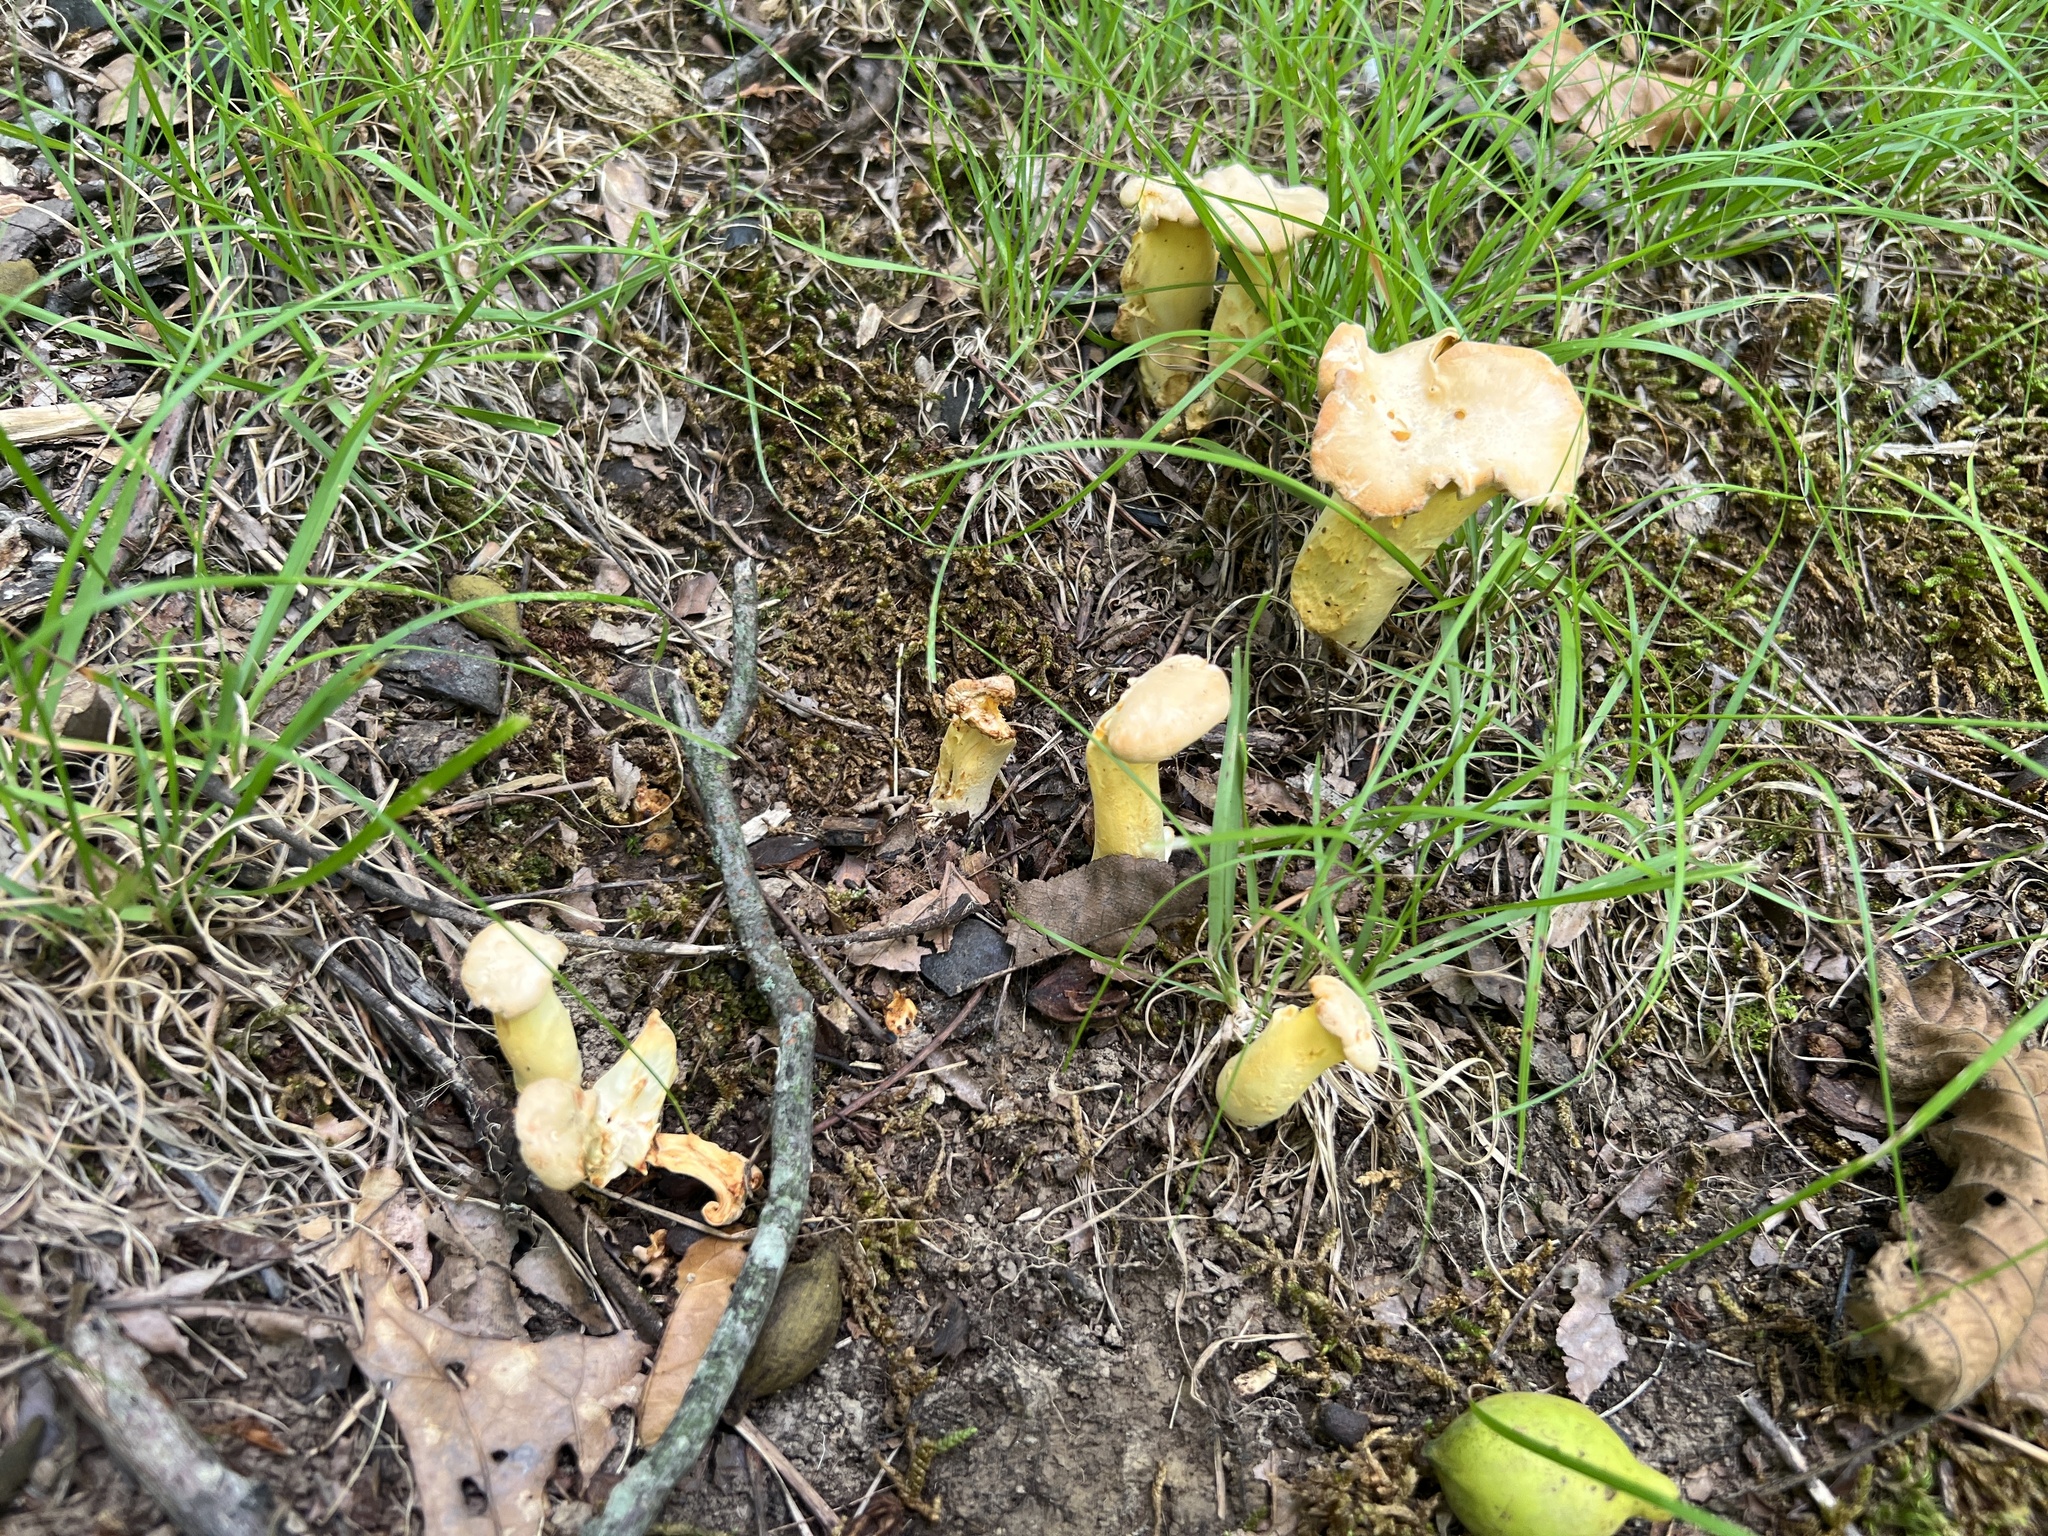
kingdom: Fungi
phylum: Basidiomycota
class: Agaricomycetes
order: Cantharellales
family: Hydnaceae
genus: Cantharellus
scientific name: Cantharellus flavolateritius
